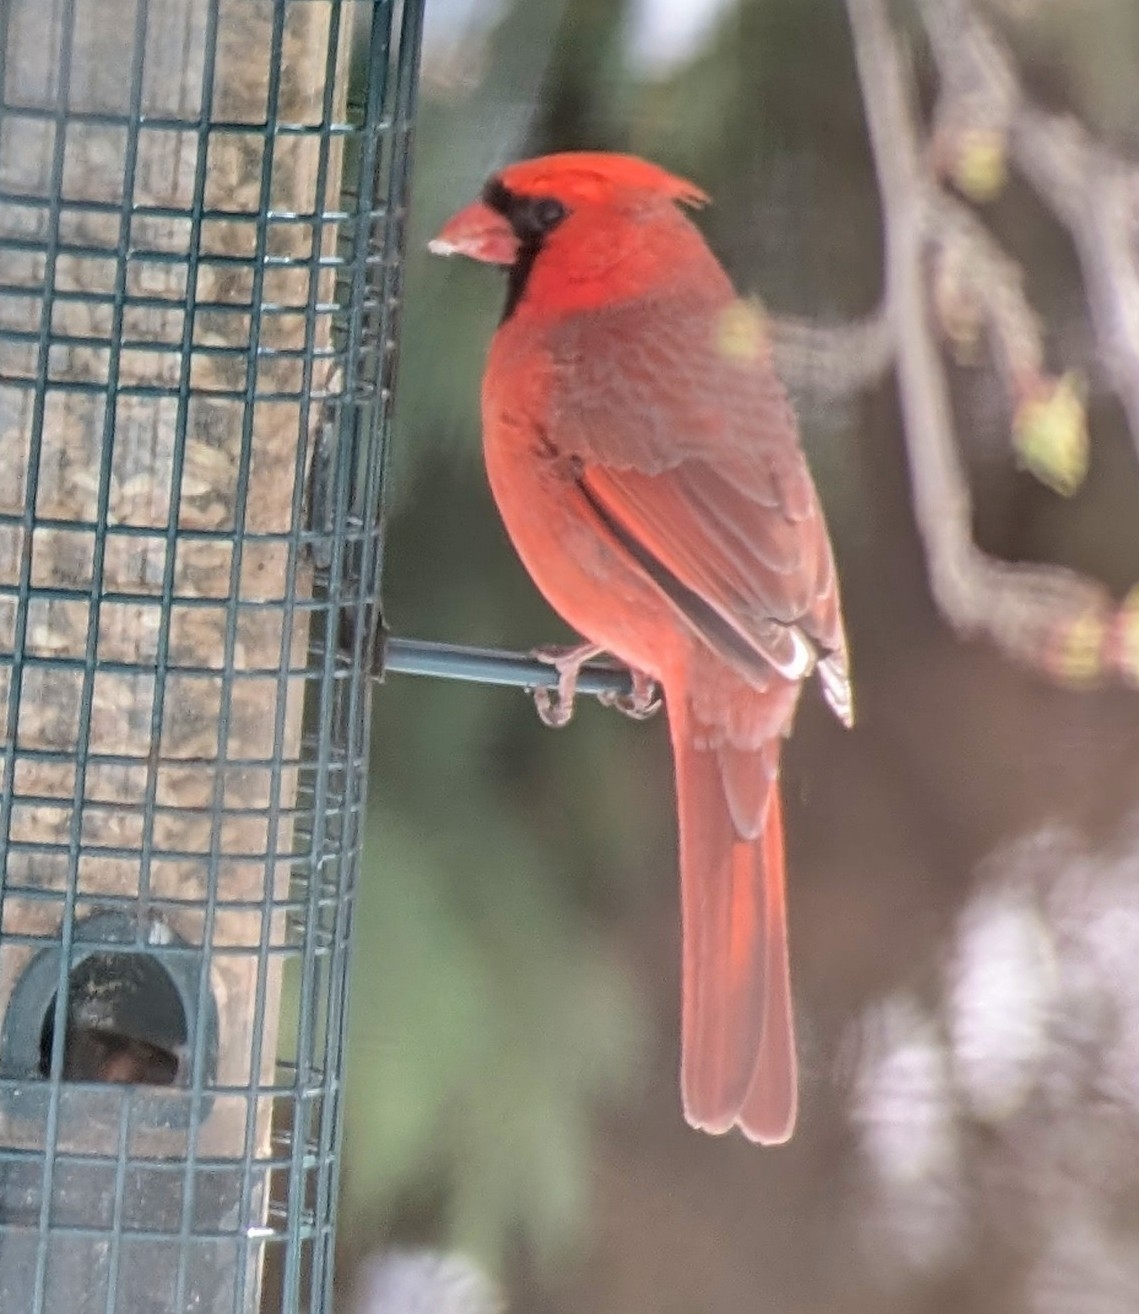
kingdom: Animalia
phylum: Chordata
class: Aves
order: Passeriformes
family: Cardinalidae
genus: Cardinalis
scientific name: Cardinalis cardinalis
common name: Northern cardinal
